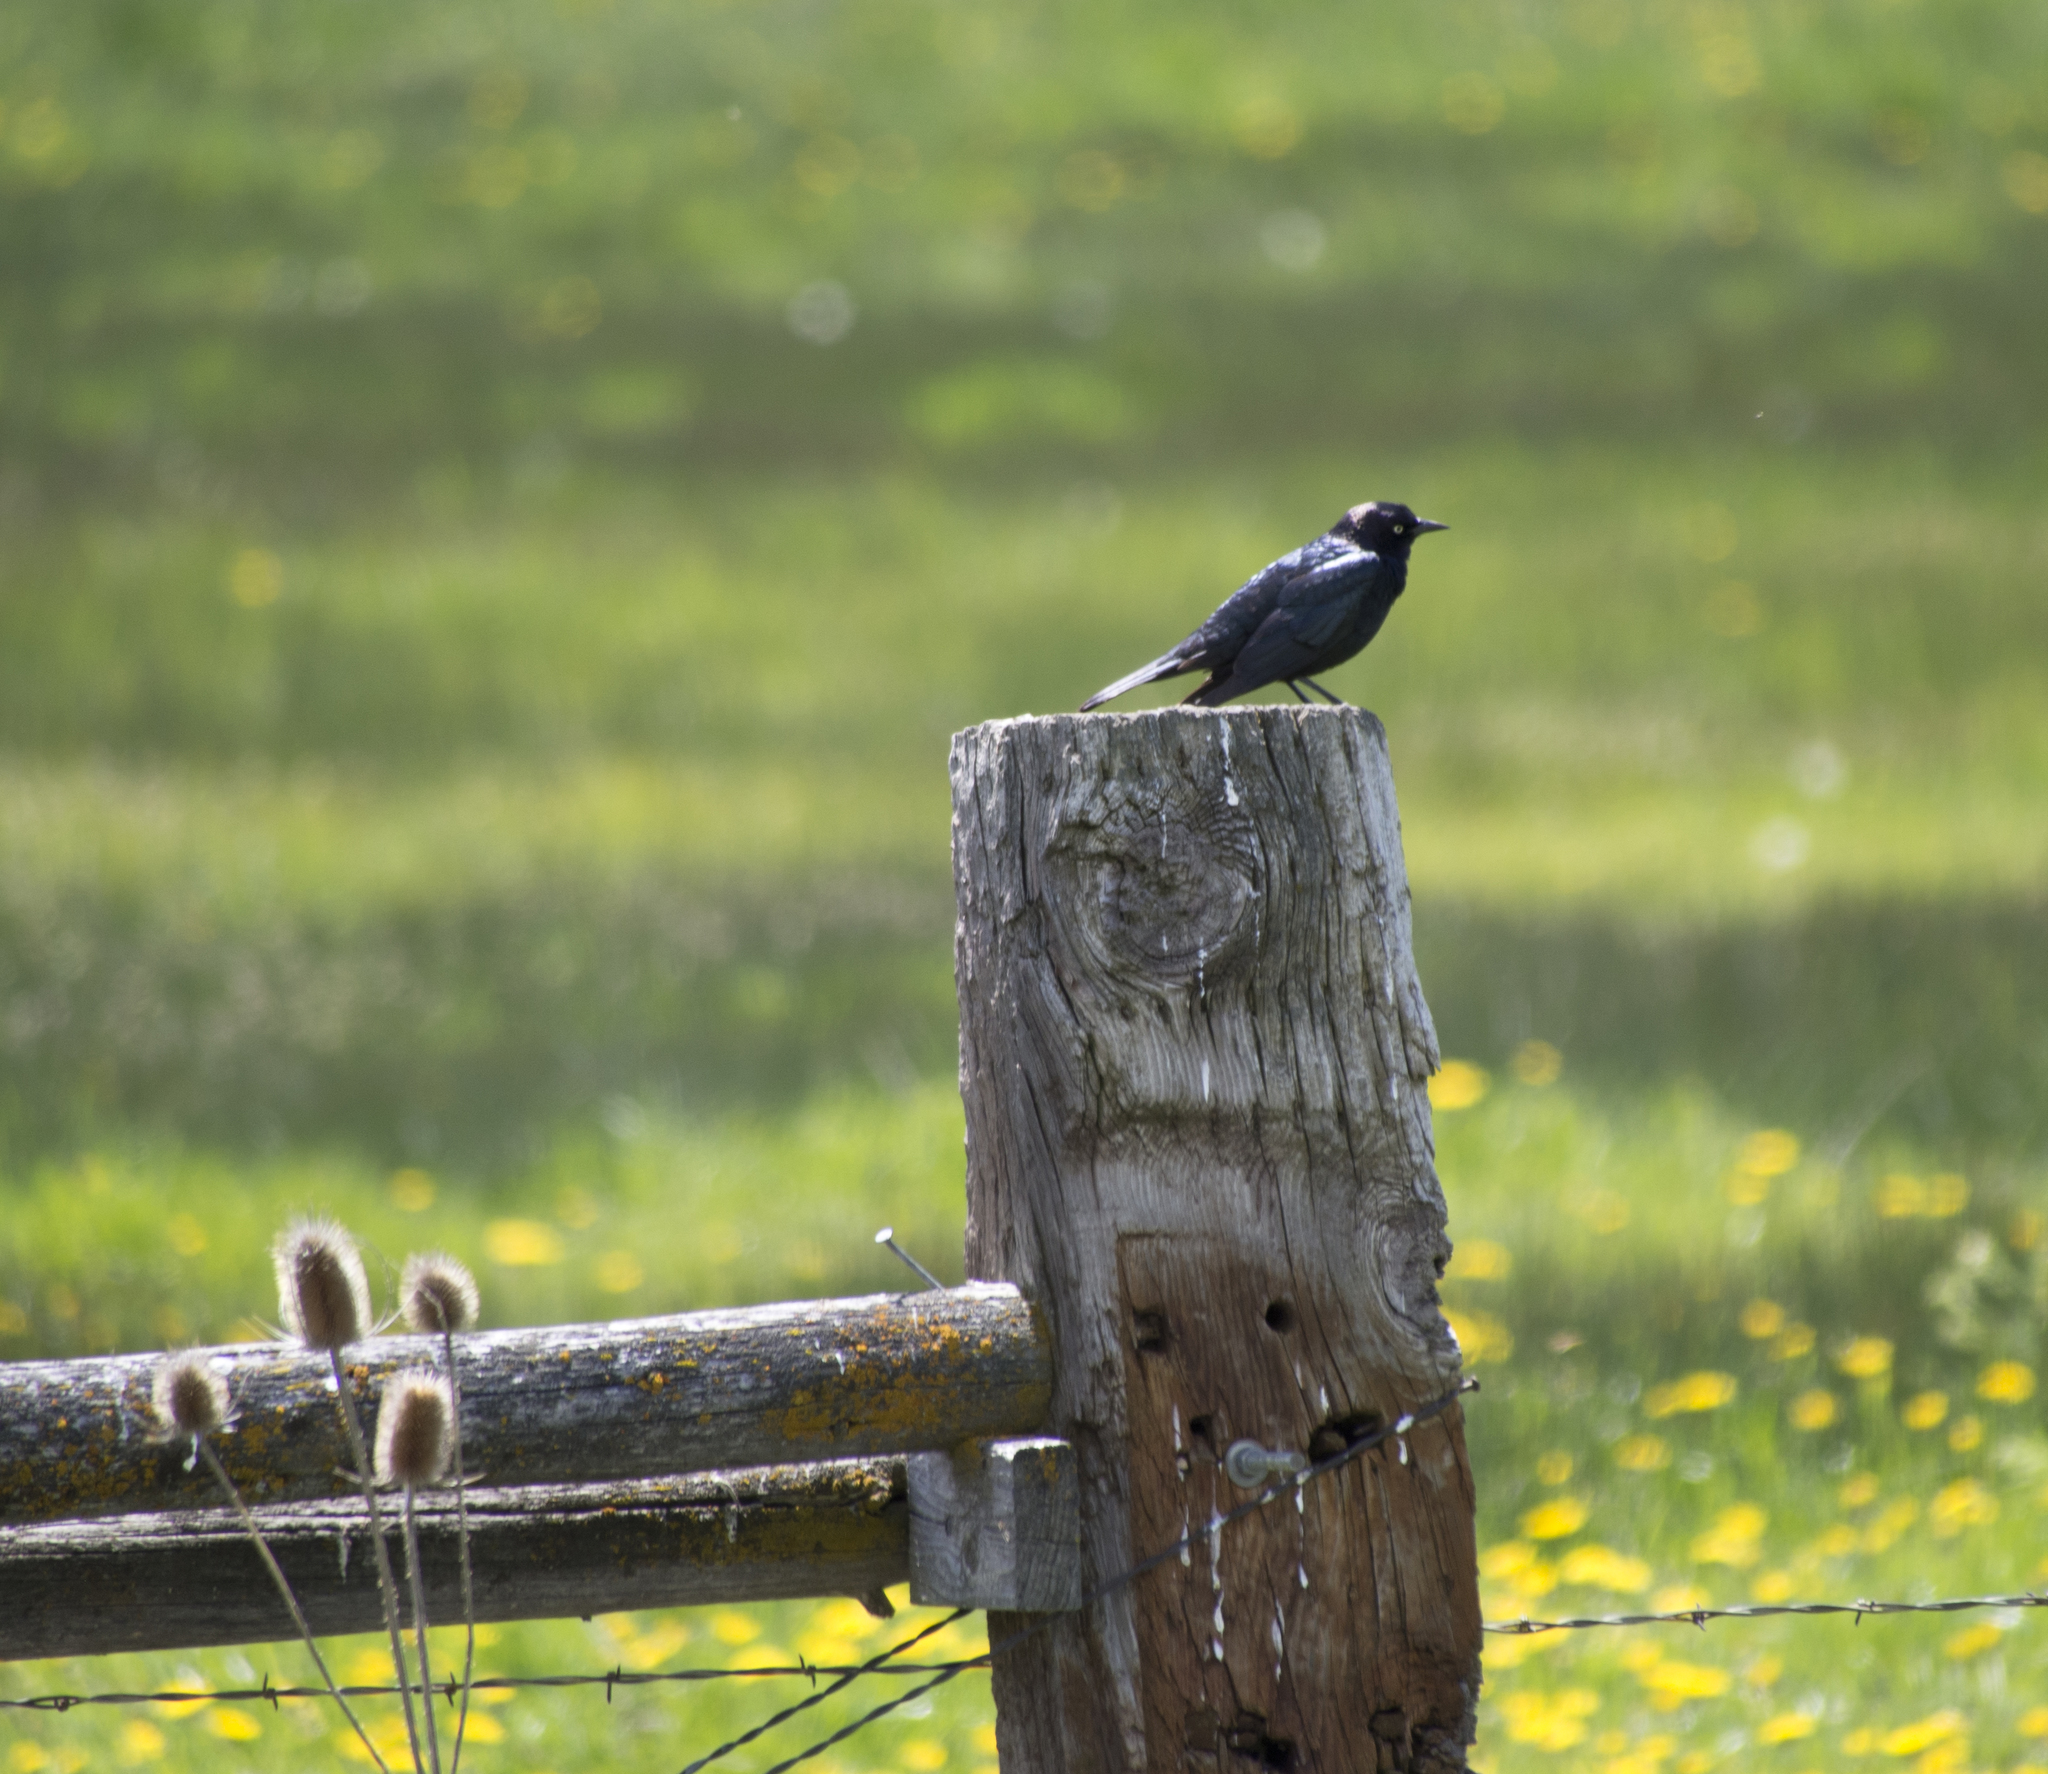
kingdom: Animalia
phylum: Chordata
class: Aves
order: Passeriformes
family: Icteridae
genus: Euphagus
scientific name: Euphagus cyanocephalus
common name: Brewer's blackbird
